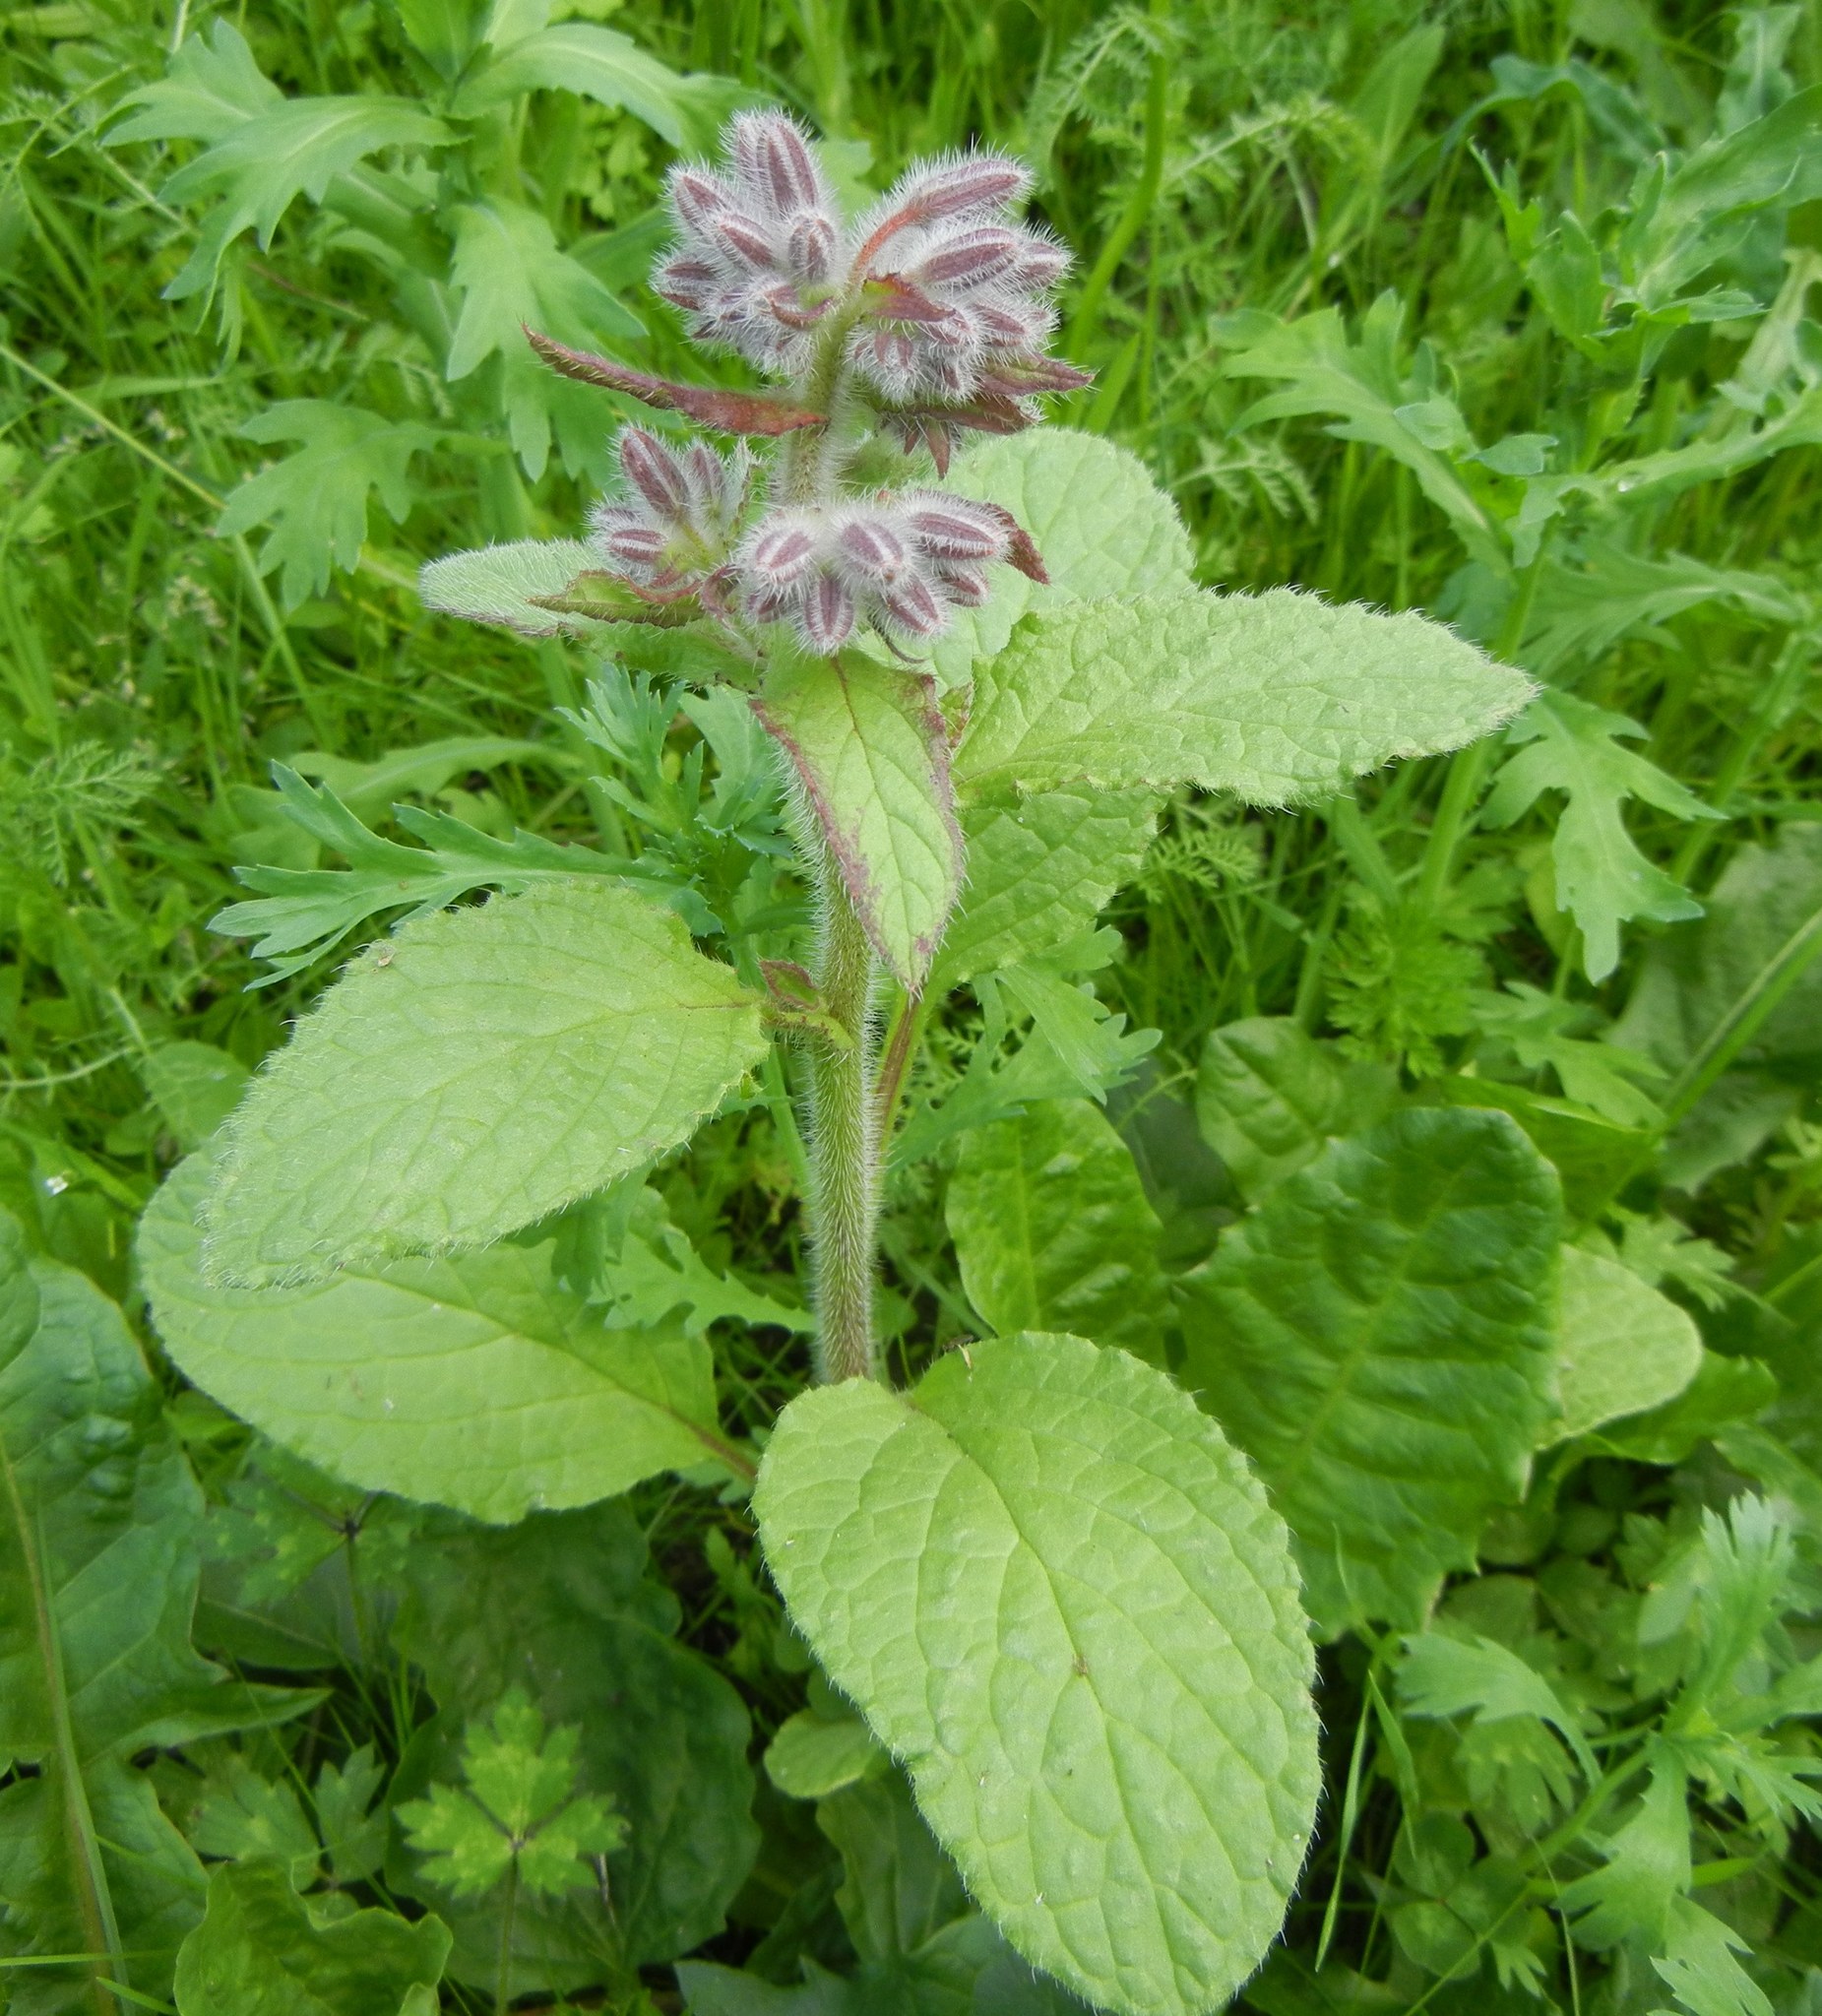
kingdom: Plantae
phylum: Tracheophyta
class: Magnoliopsida
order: Boraginales
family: Boraginaceae
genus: Borago
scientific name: Borago officinalis
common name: Borage
